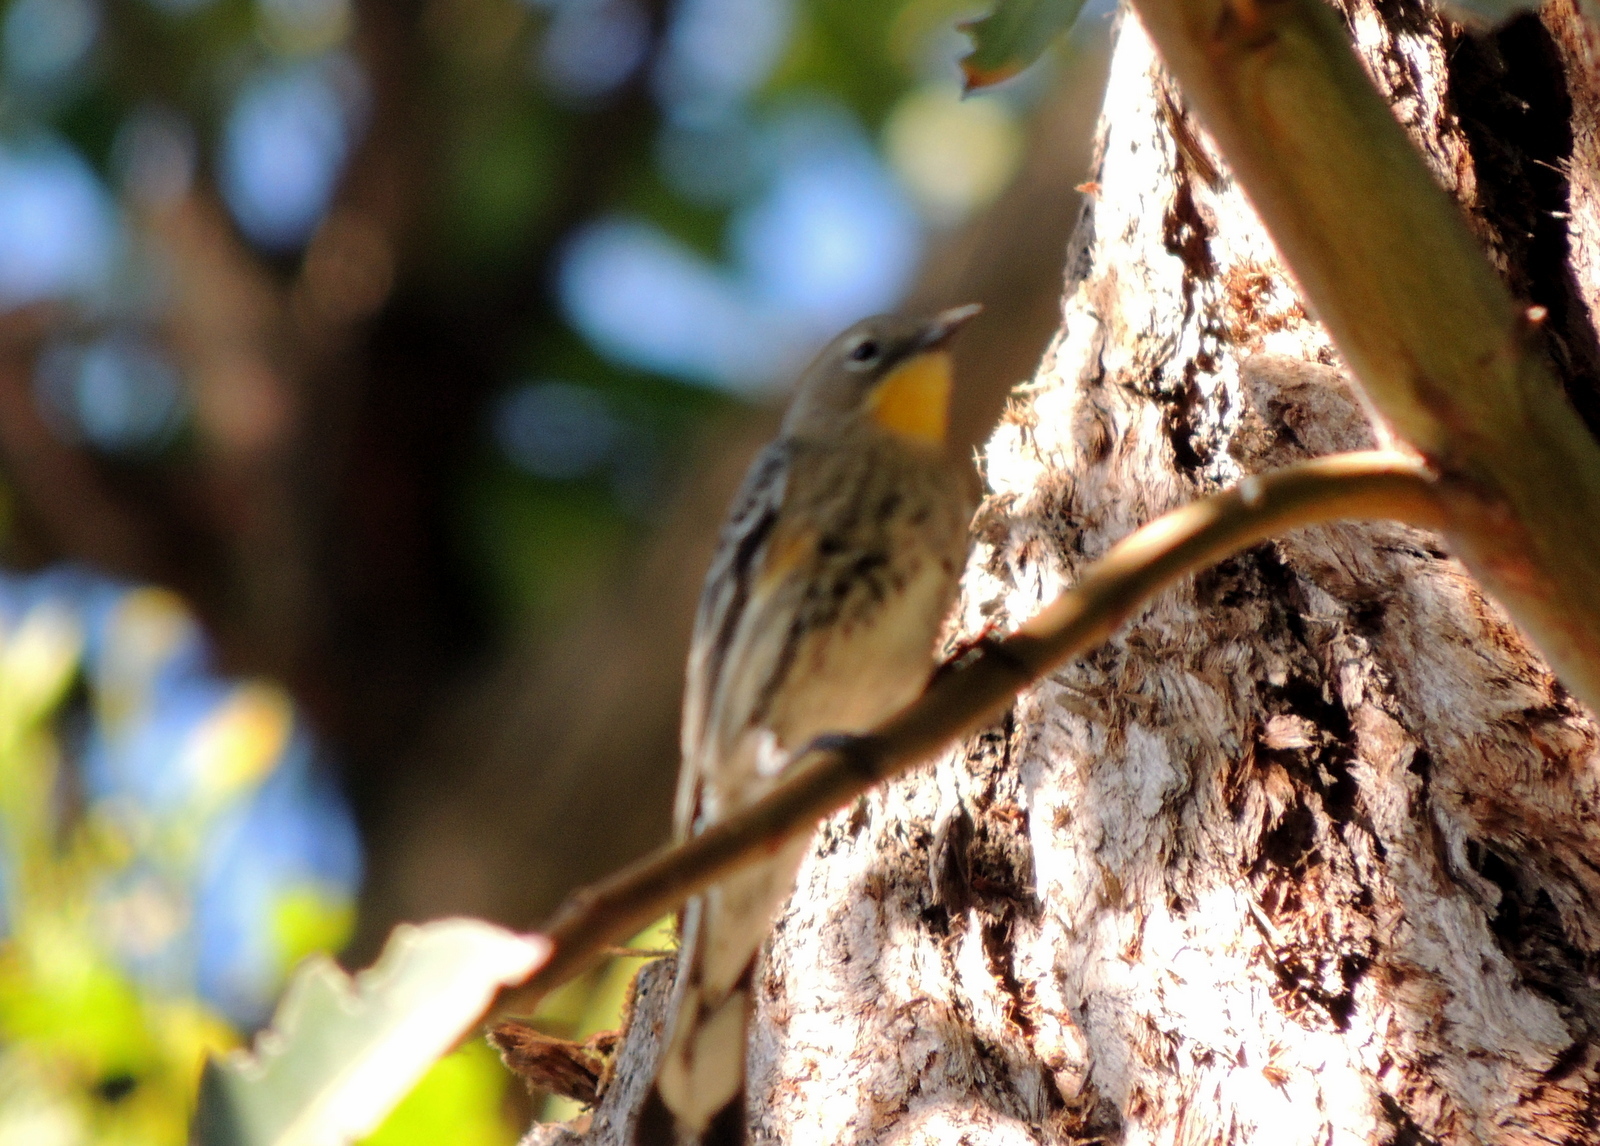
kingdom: Animalia
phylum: Chordata
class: Aves
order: Passeriformes
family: Parulidae
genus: Setophaga
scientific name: Setophaga coronata
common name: Myrtle warbler
